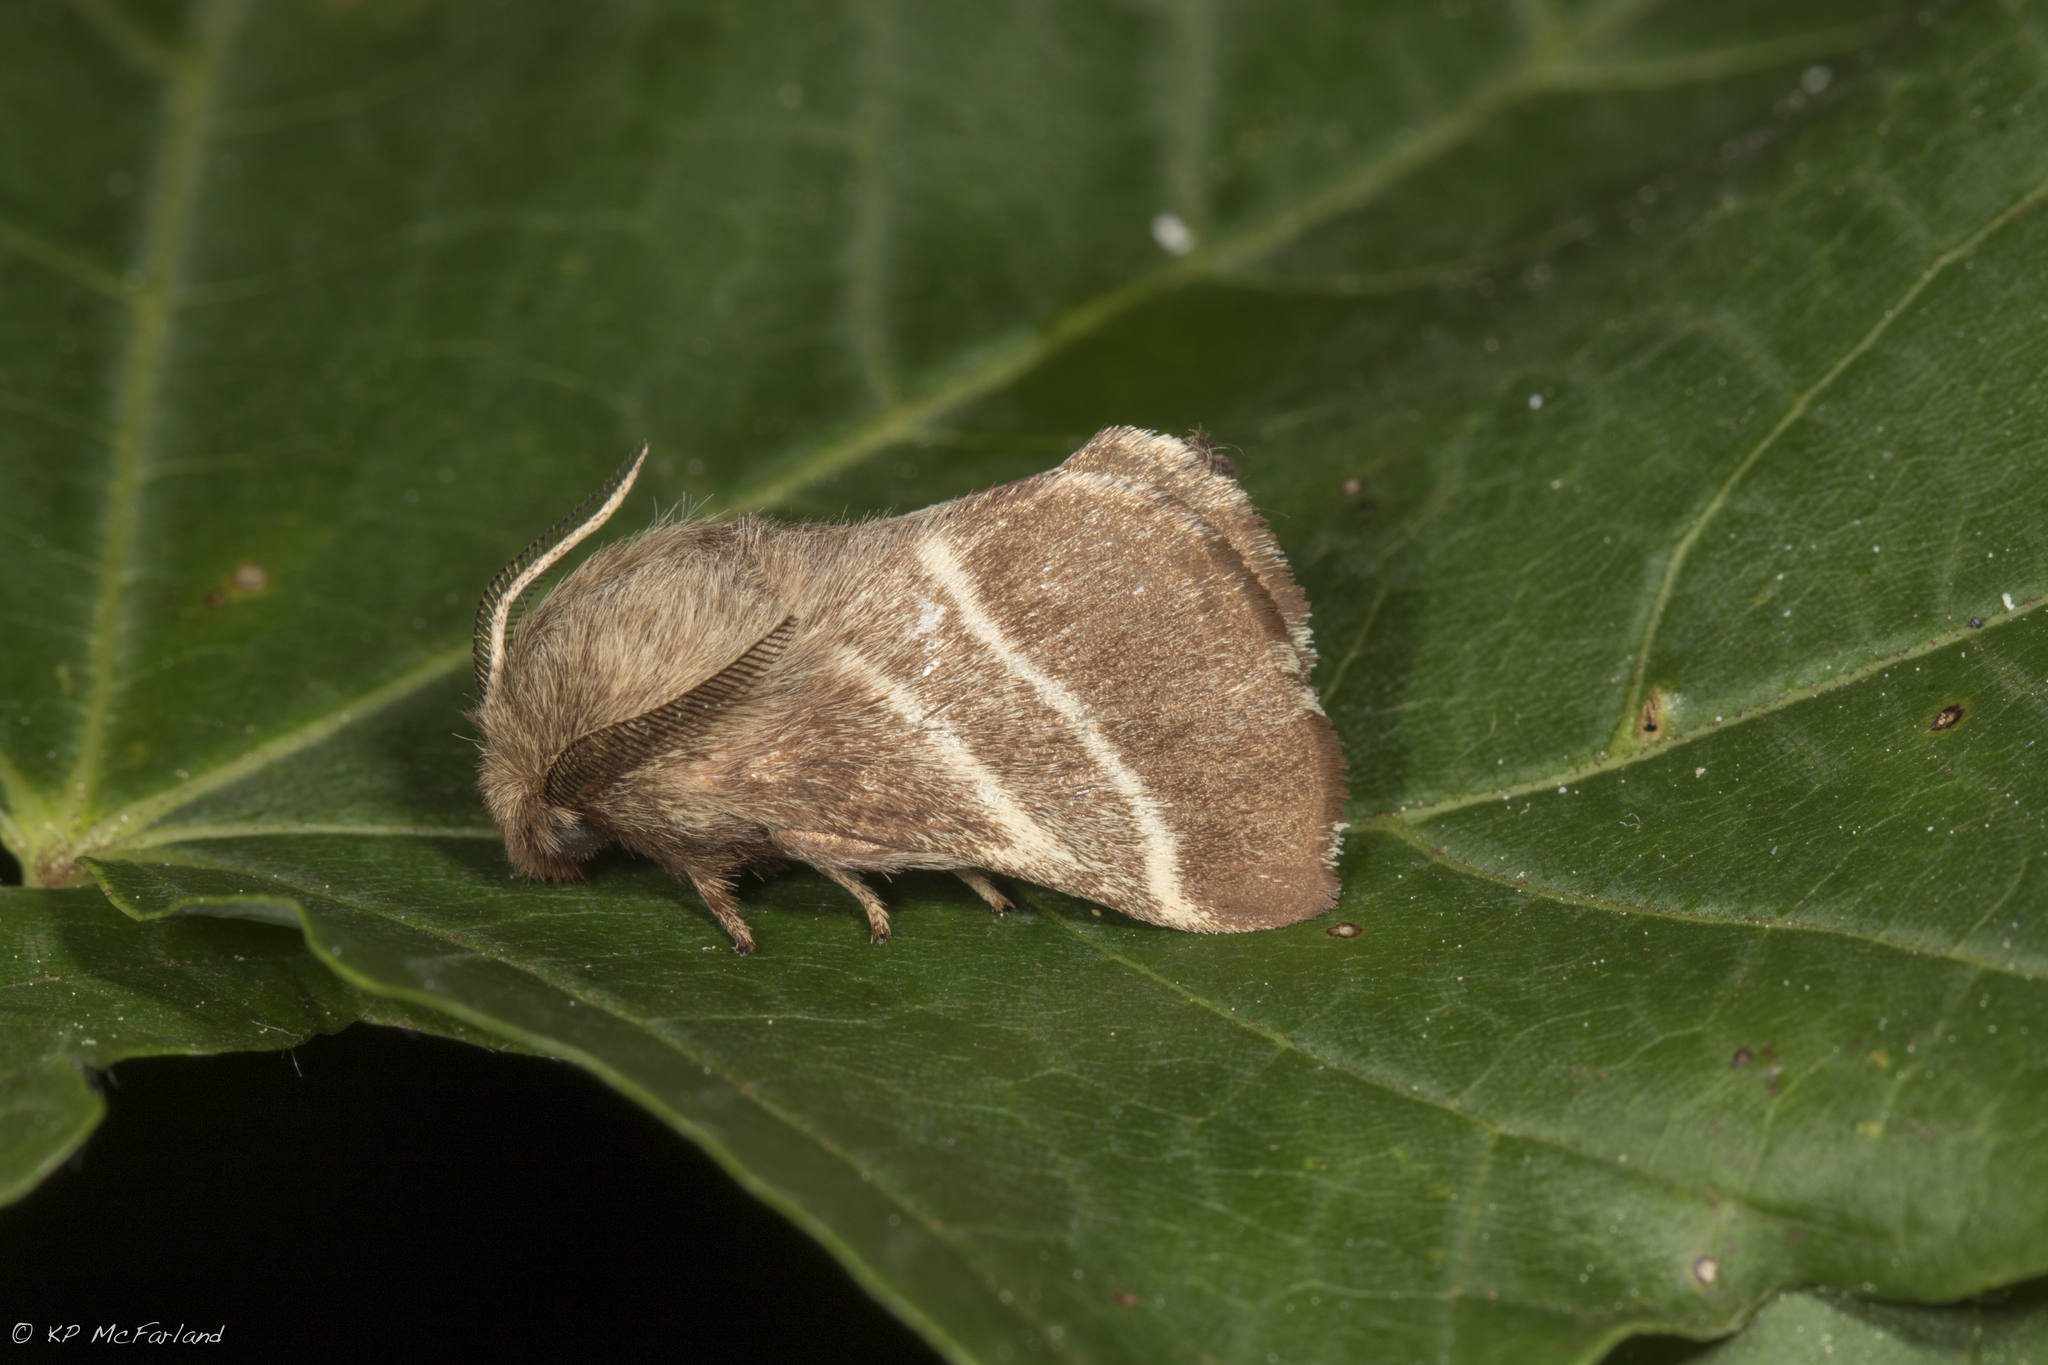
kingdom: Animalia
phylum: Arthropoda
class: Insecta
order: Lepidoptera
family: Lasiocampidae
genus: Malacosoma
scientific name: Malacosoma americana
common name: Eastern tent caterpillar moth
